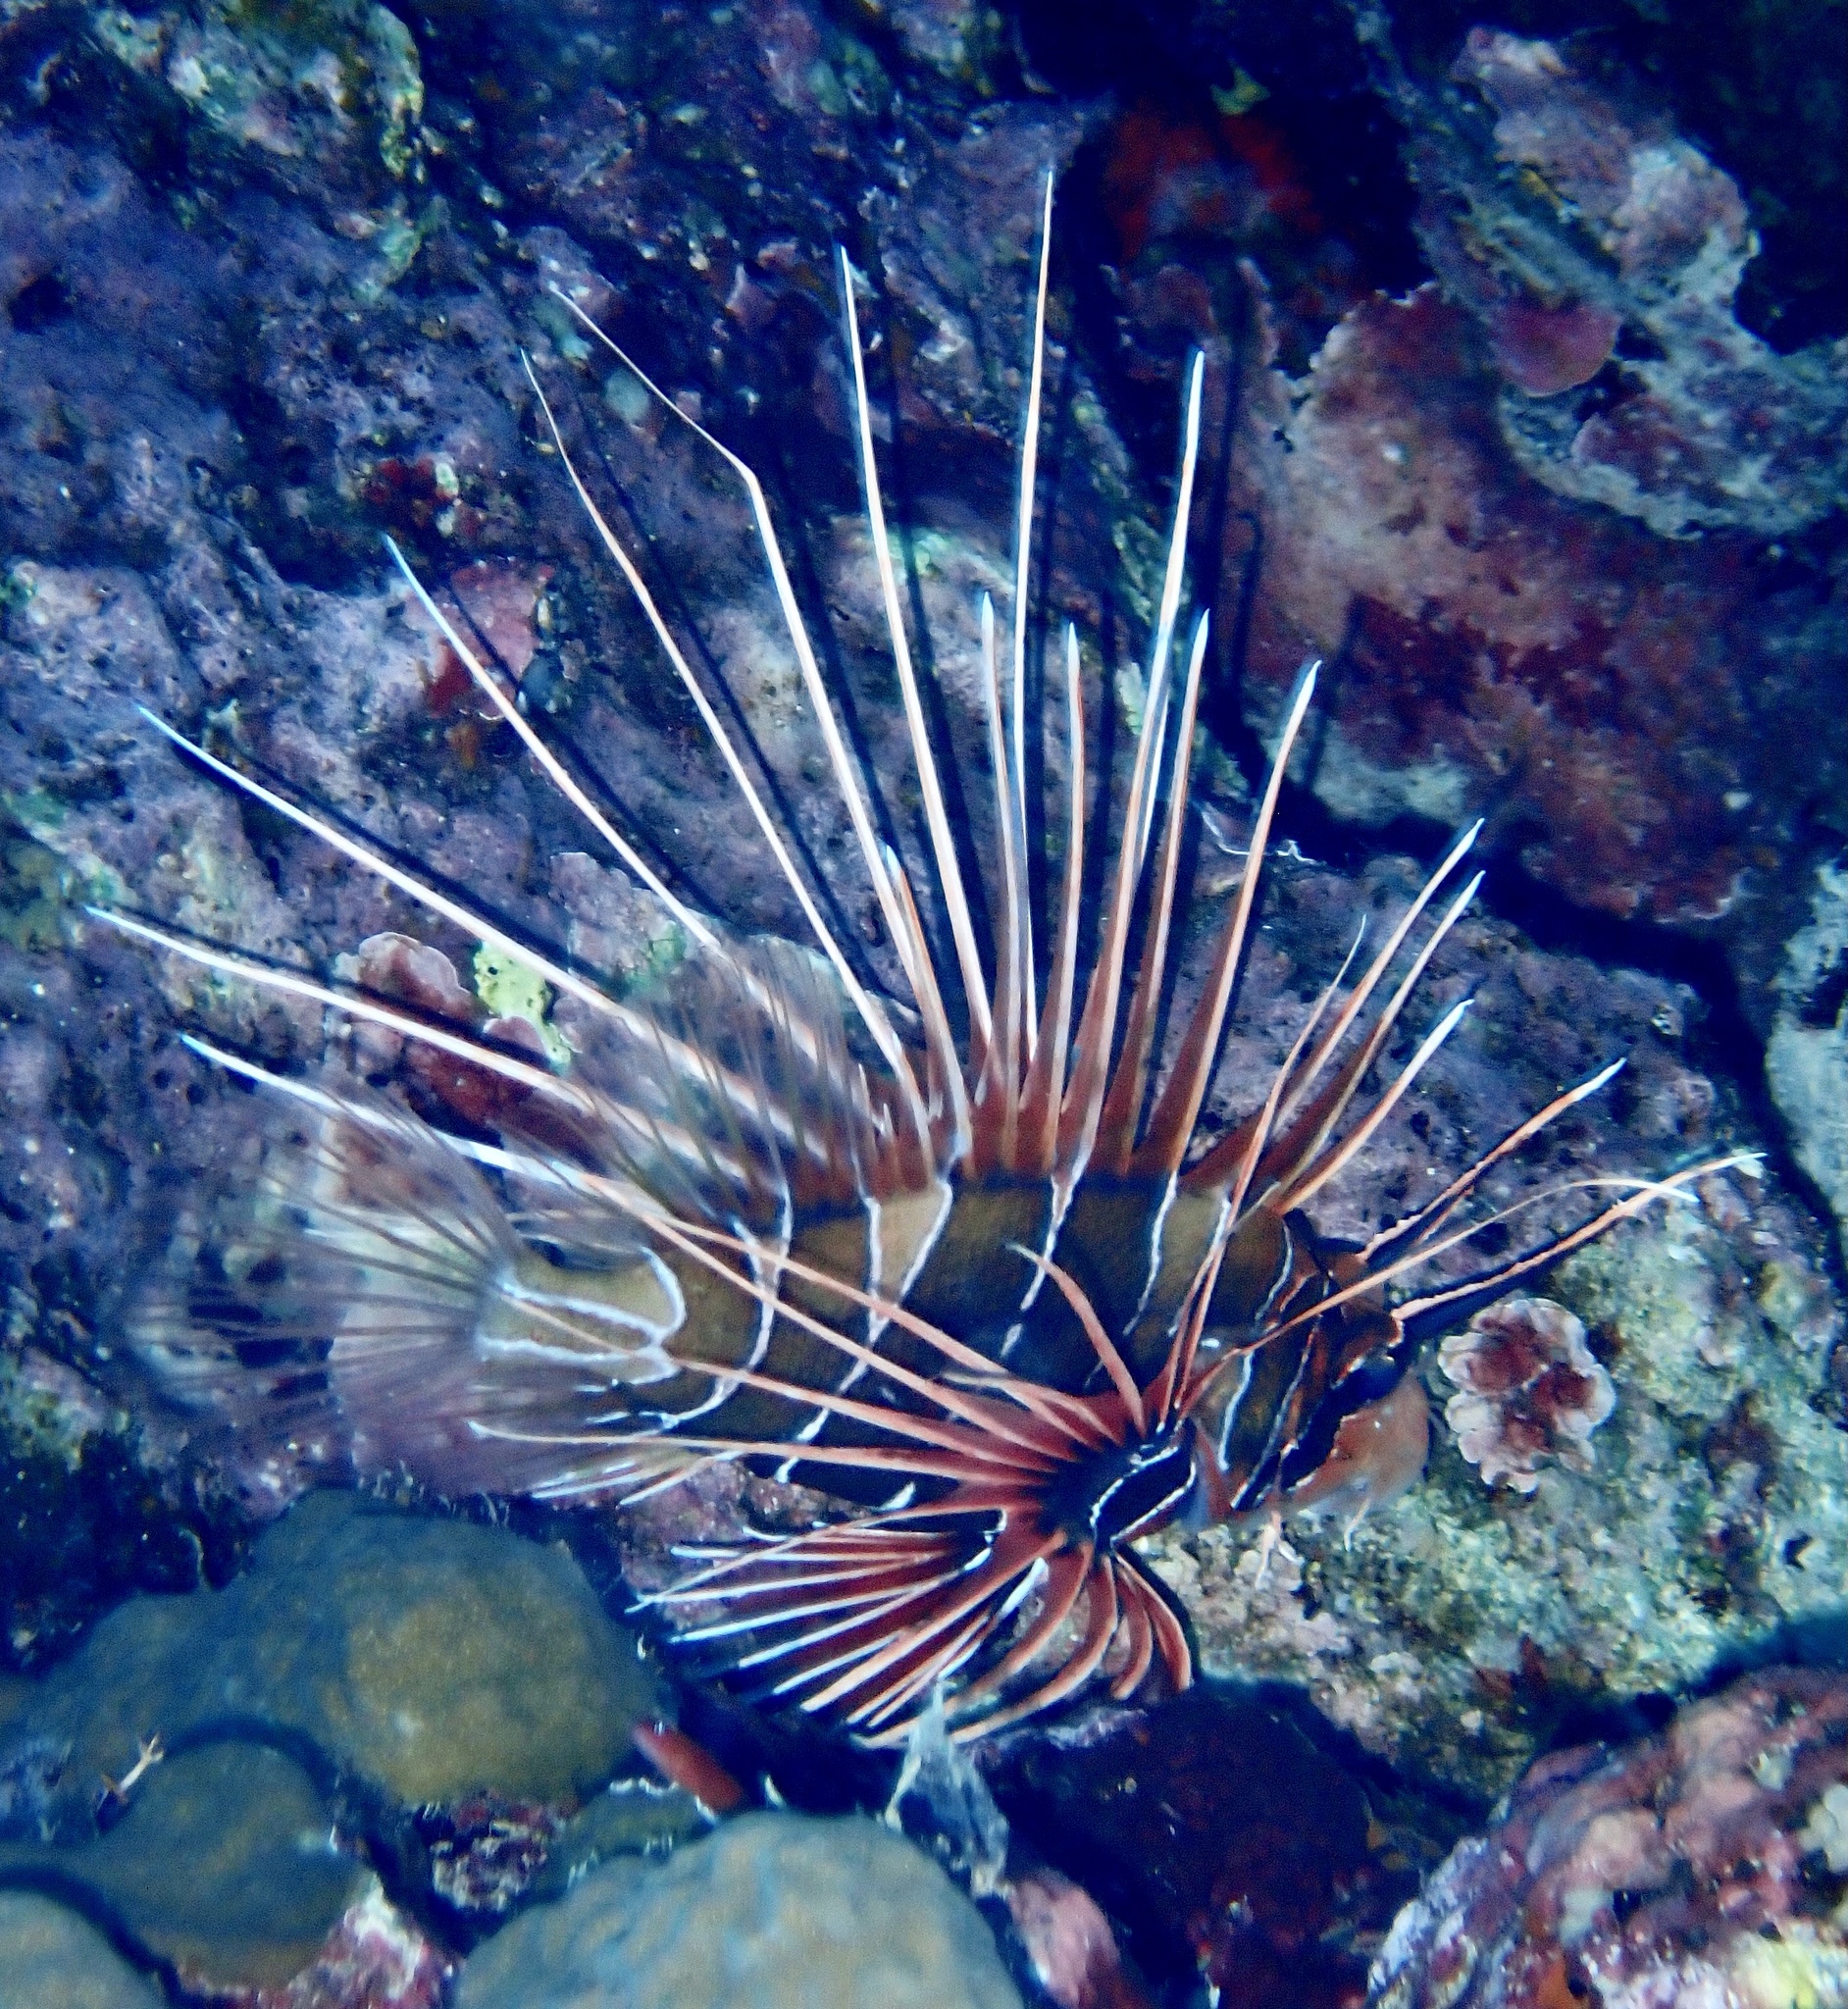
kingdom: Animalia
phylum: Chordata
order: Scorpaeniformes
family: Scorpaenidae
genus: Pterois
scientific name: Pterois cincta
